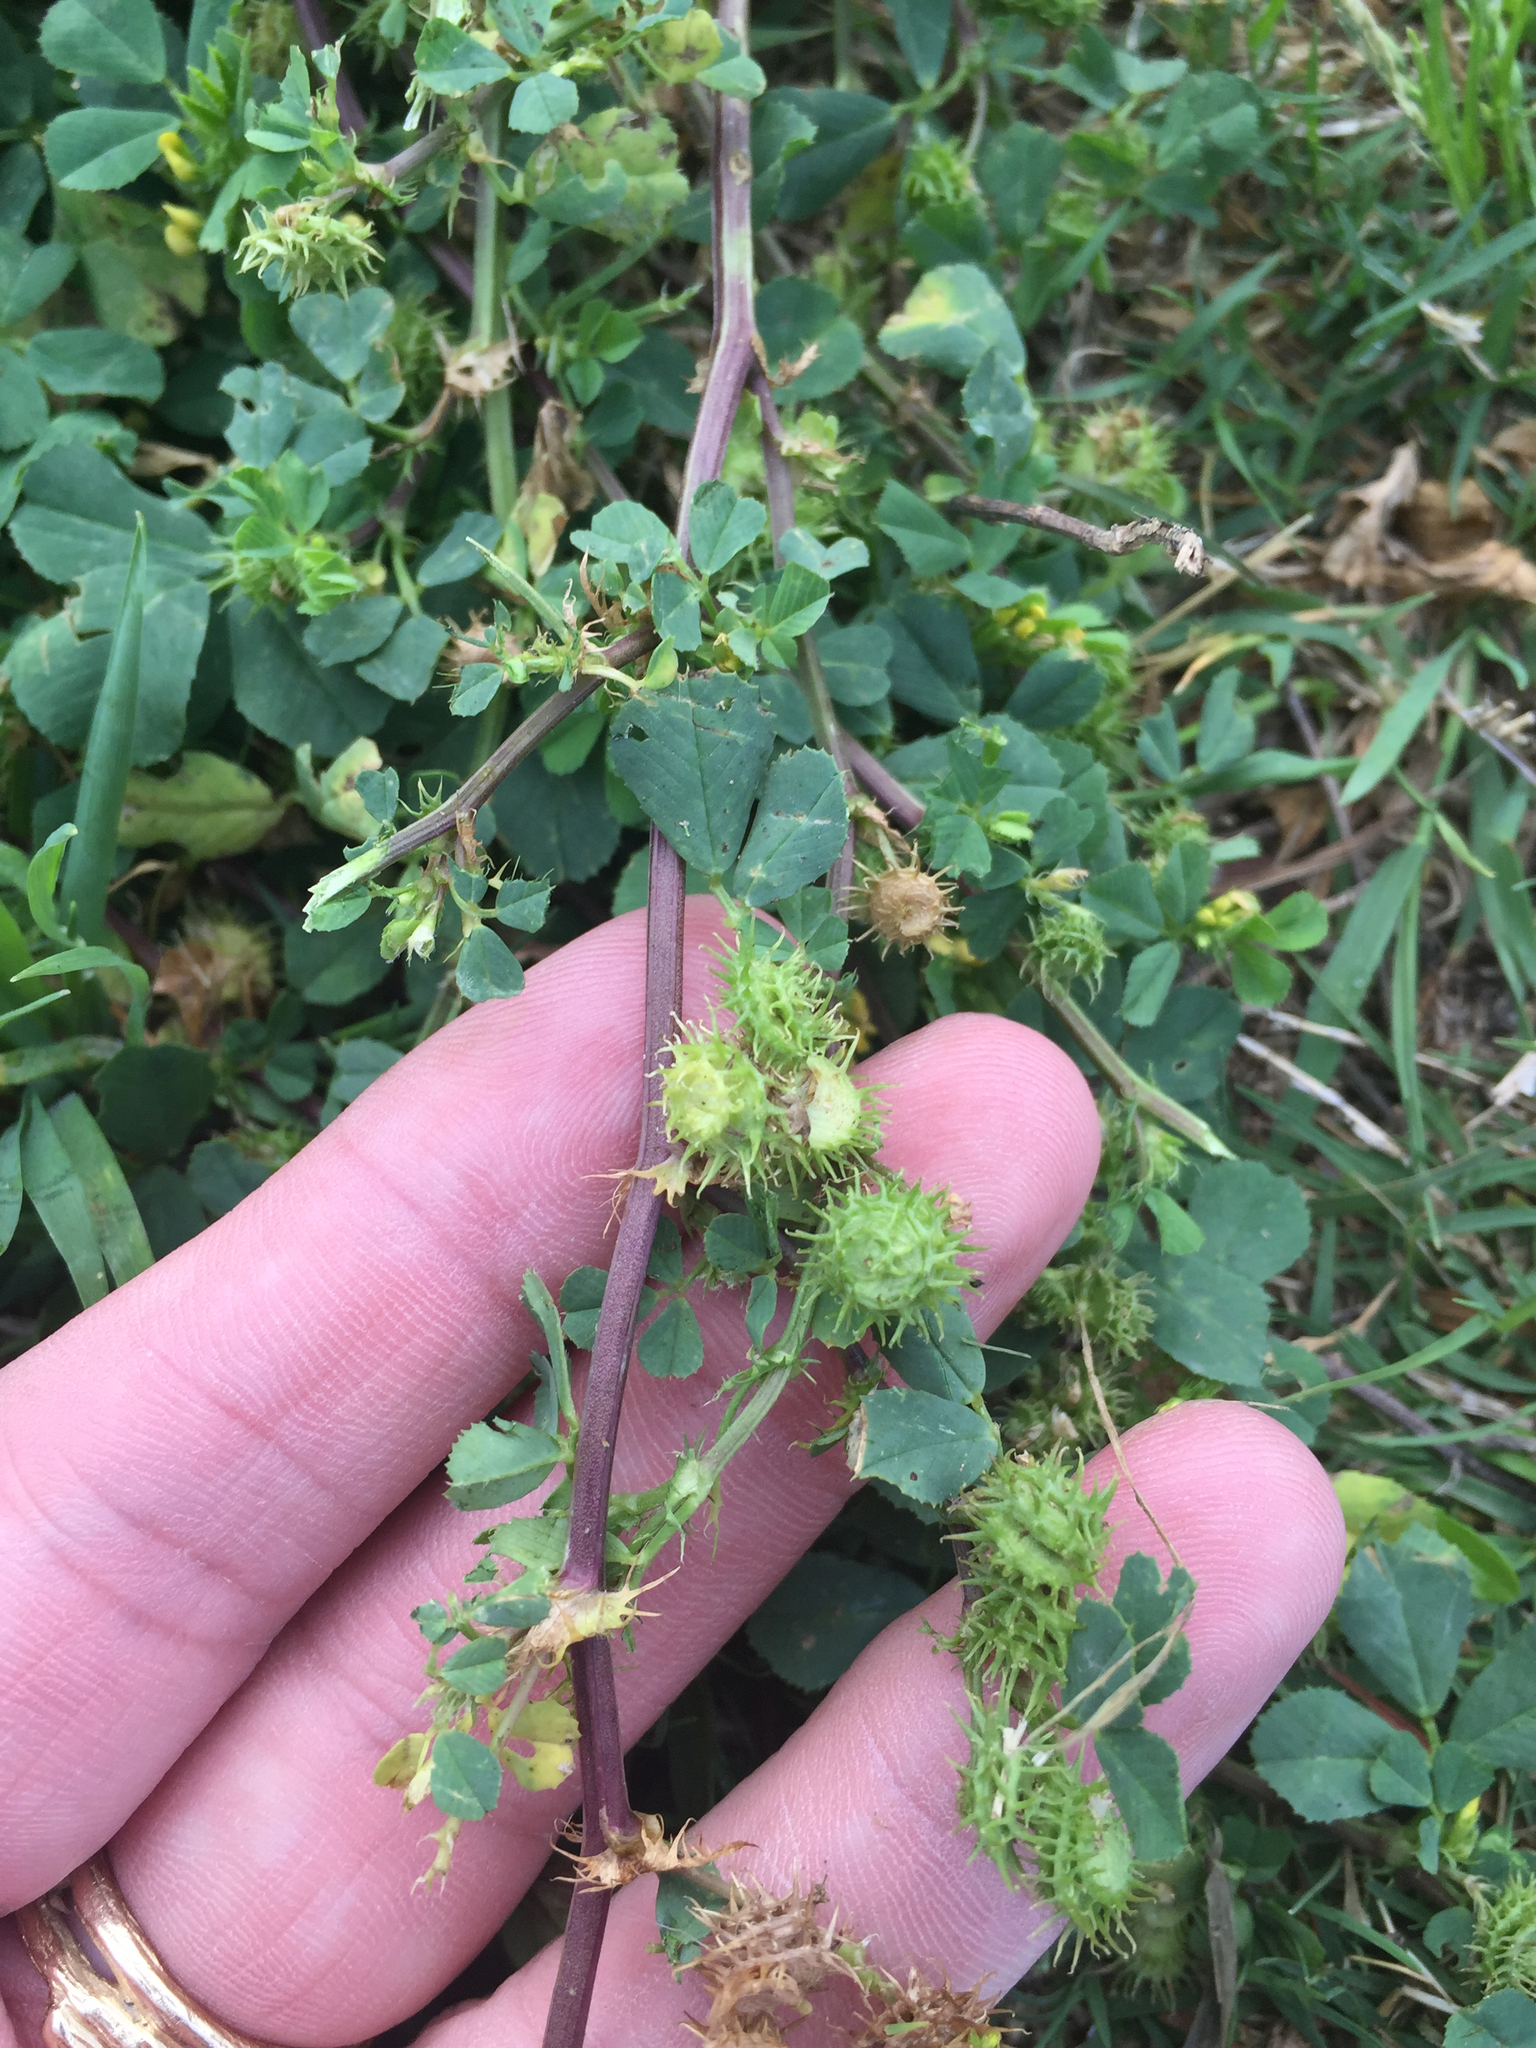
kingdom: Plantae
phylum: Tracheophyta
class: Magnoliopsida
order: Fabales
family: Fabaceae
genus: Medicago
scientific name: Medicago polymorpha
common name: Burclover
